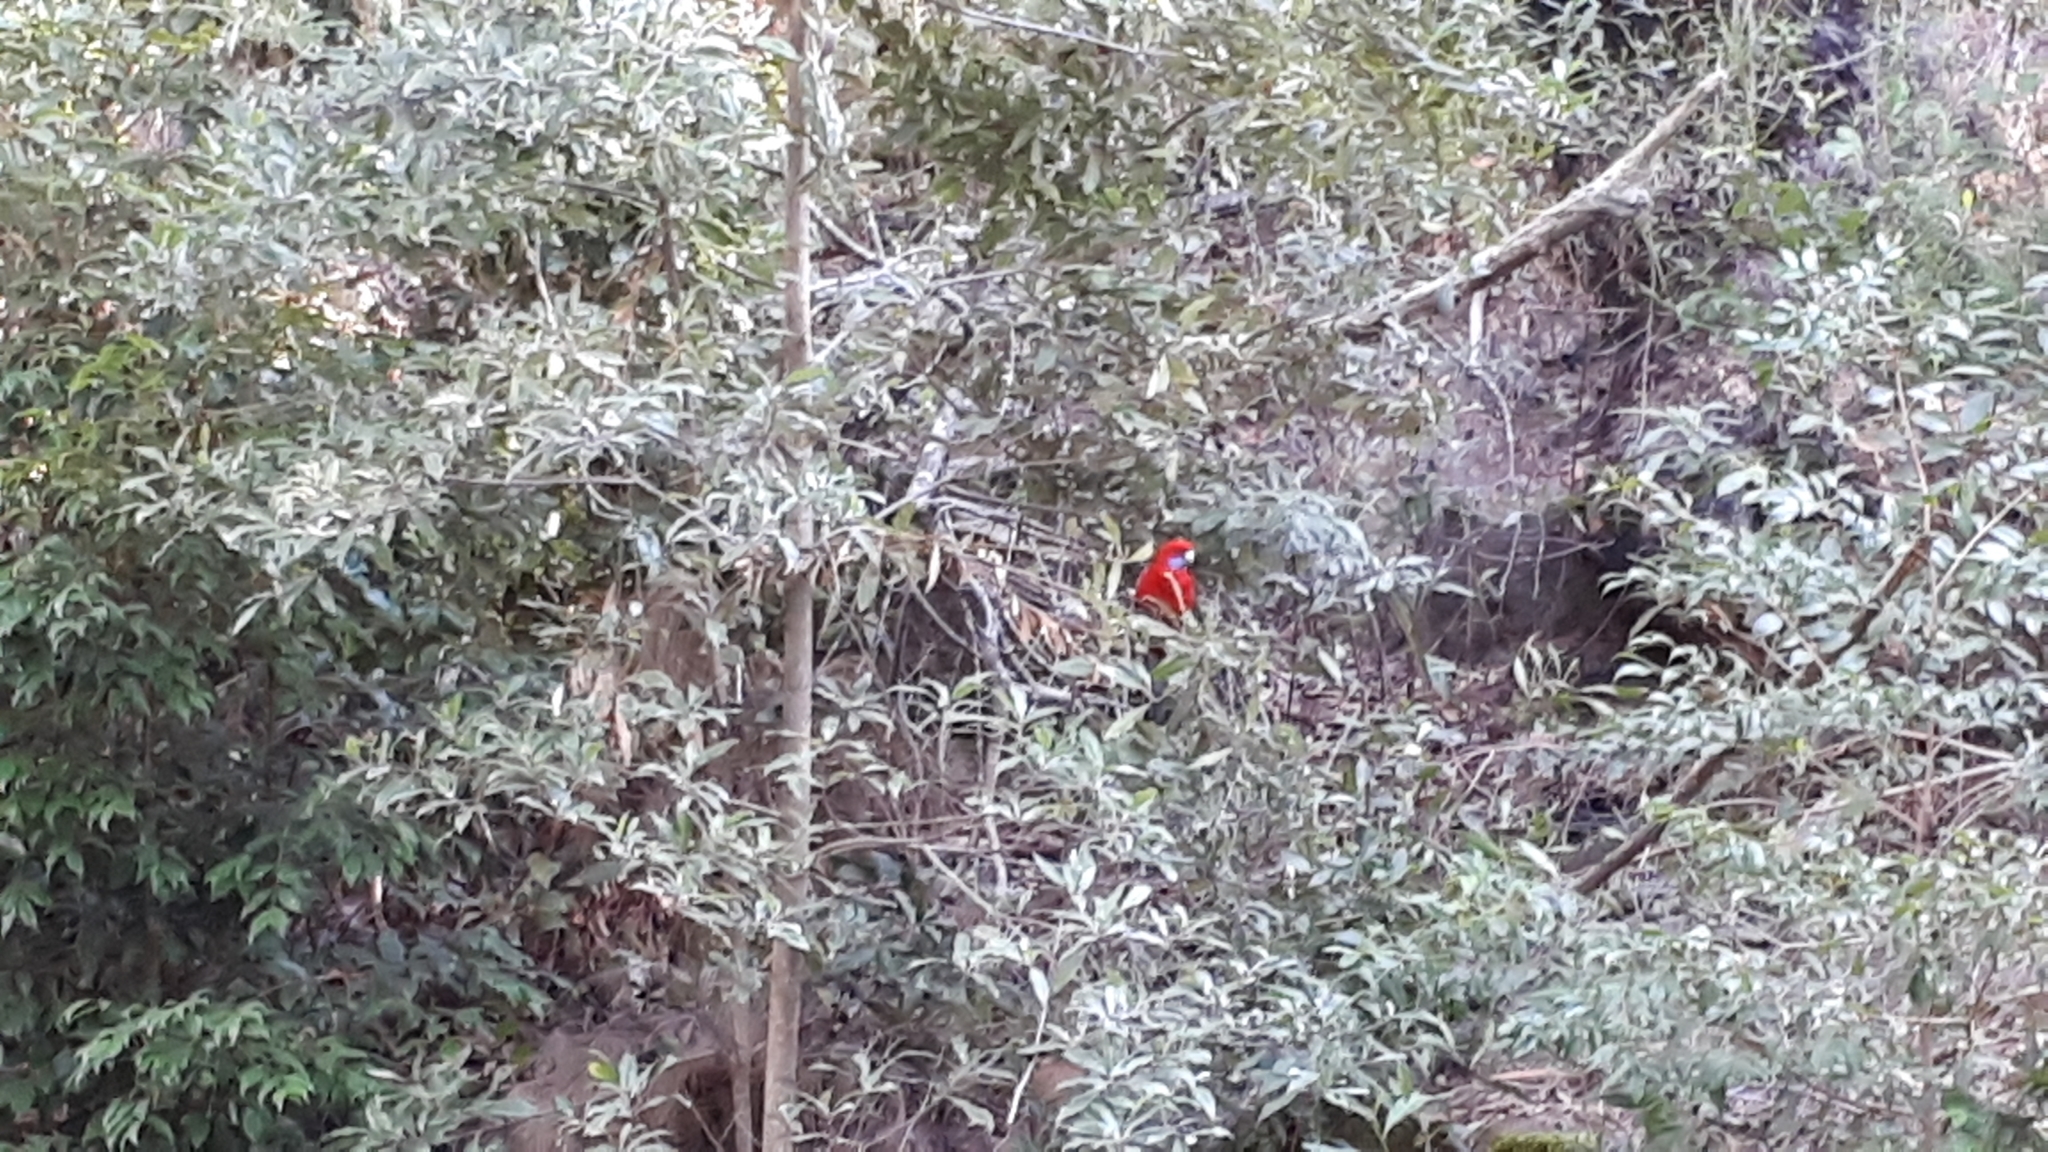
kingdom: Animalia
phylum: Chordata
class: Aves
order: Psittaciformes
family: Psittacidae
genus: Platycercus
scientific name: Platycercus elegans
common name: Crimson rosella
